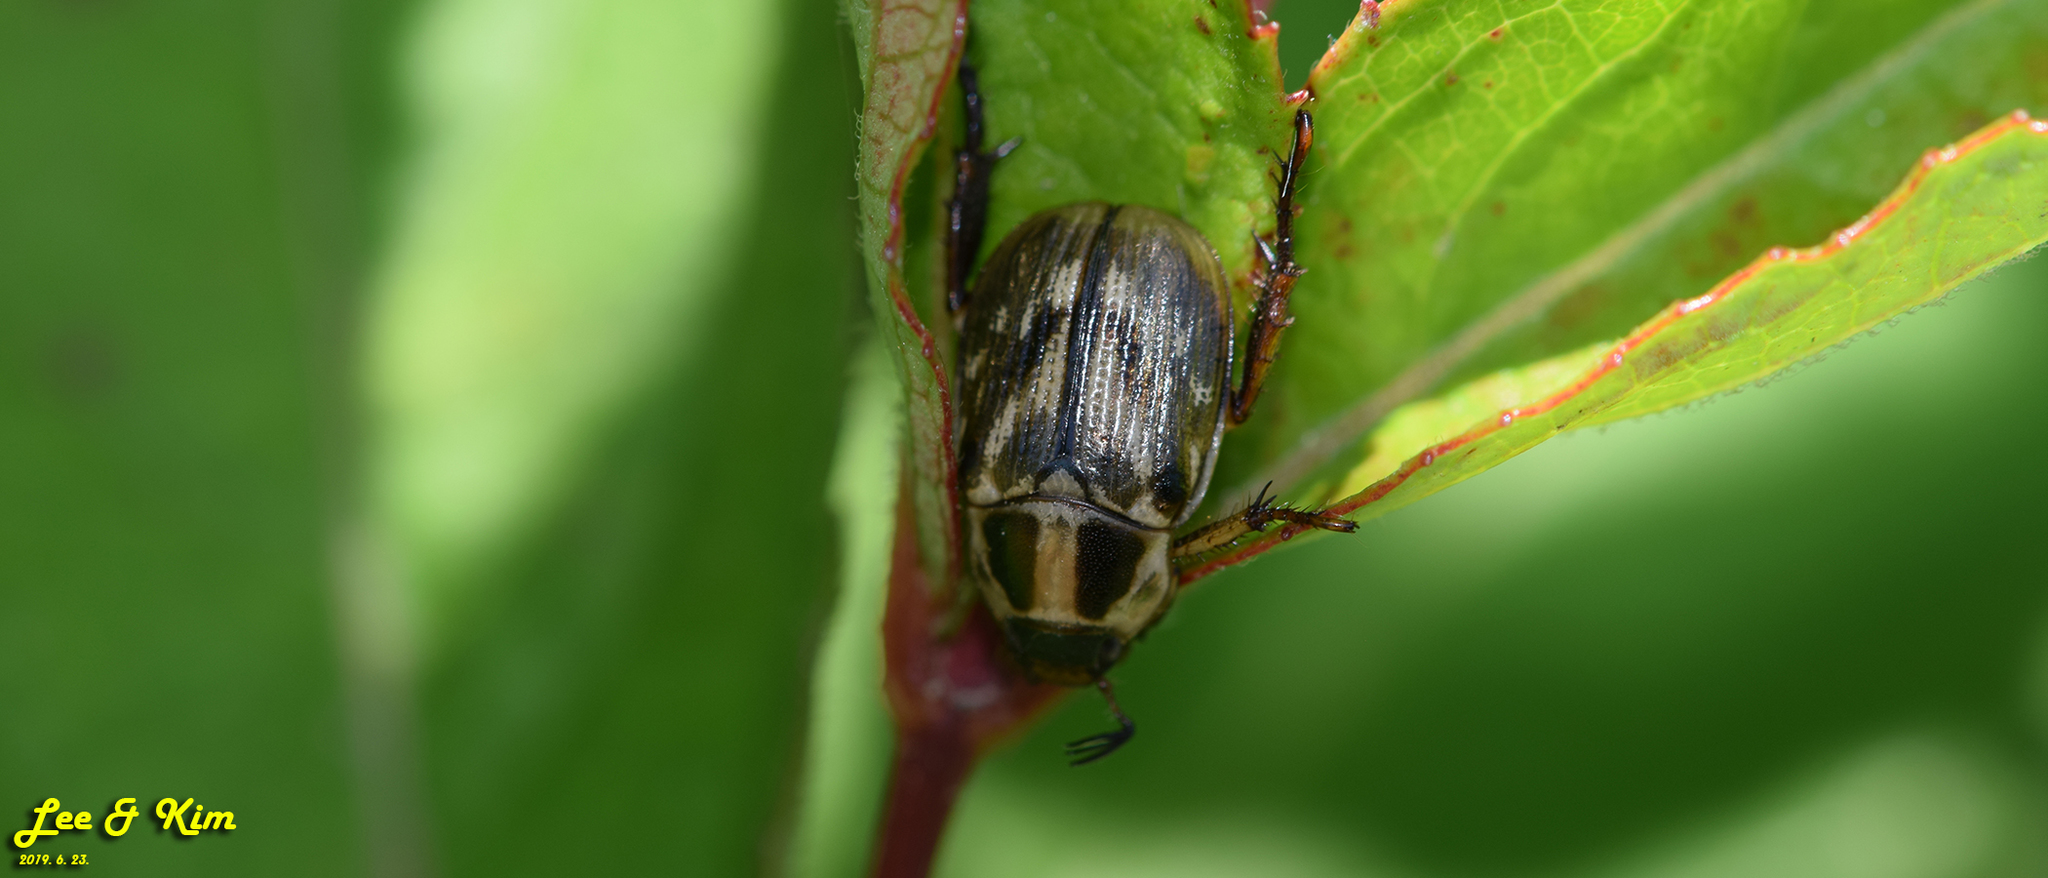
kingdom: Animalia
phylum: Arthropoda
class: Insecta
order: Coleoptera
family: Scarabaeidae
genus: Exomala
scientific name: Exomala orientalis
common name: Oriental beetle
